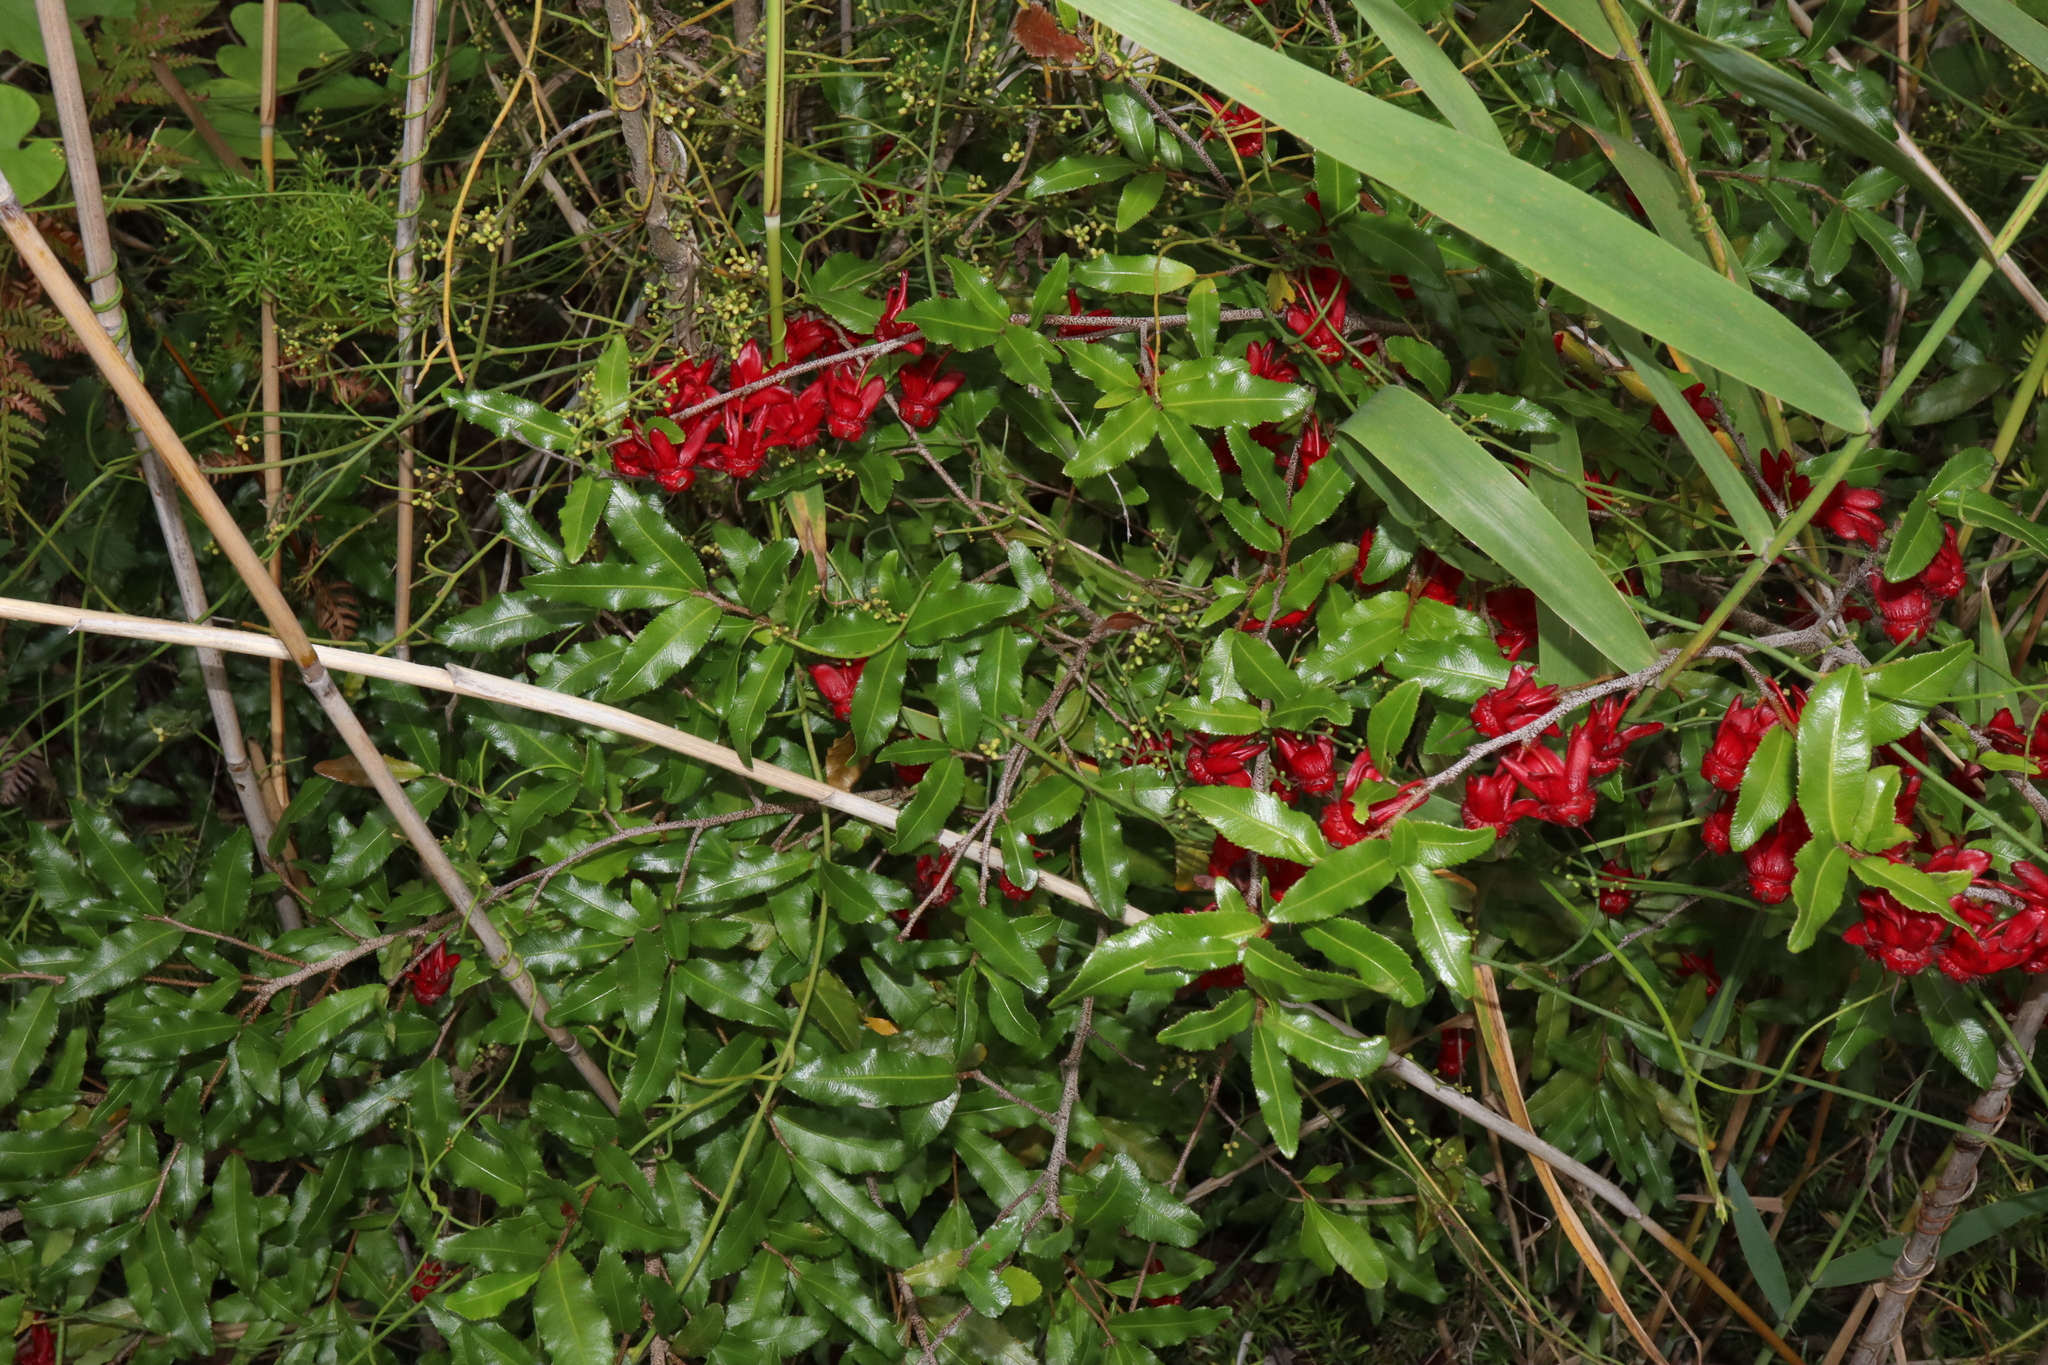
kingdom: Plantae
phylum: Tracheophyta
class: Magnoliopsida
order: Malpighiales
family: Ochnaceae
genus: Ochna
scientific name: Ochna serrulata
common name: Mickey mouse plant
